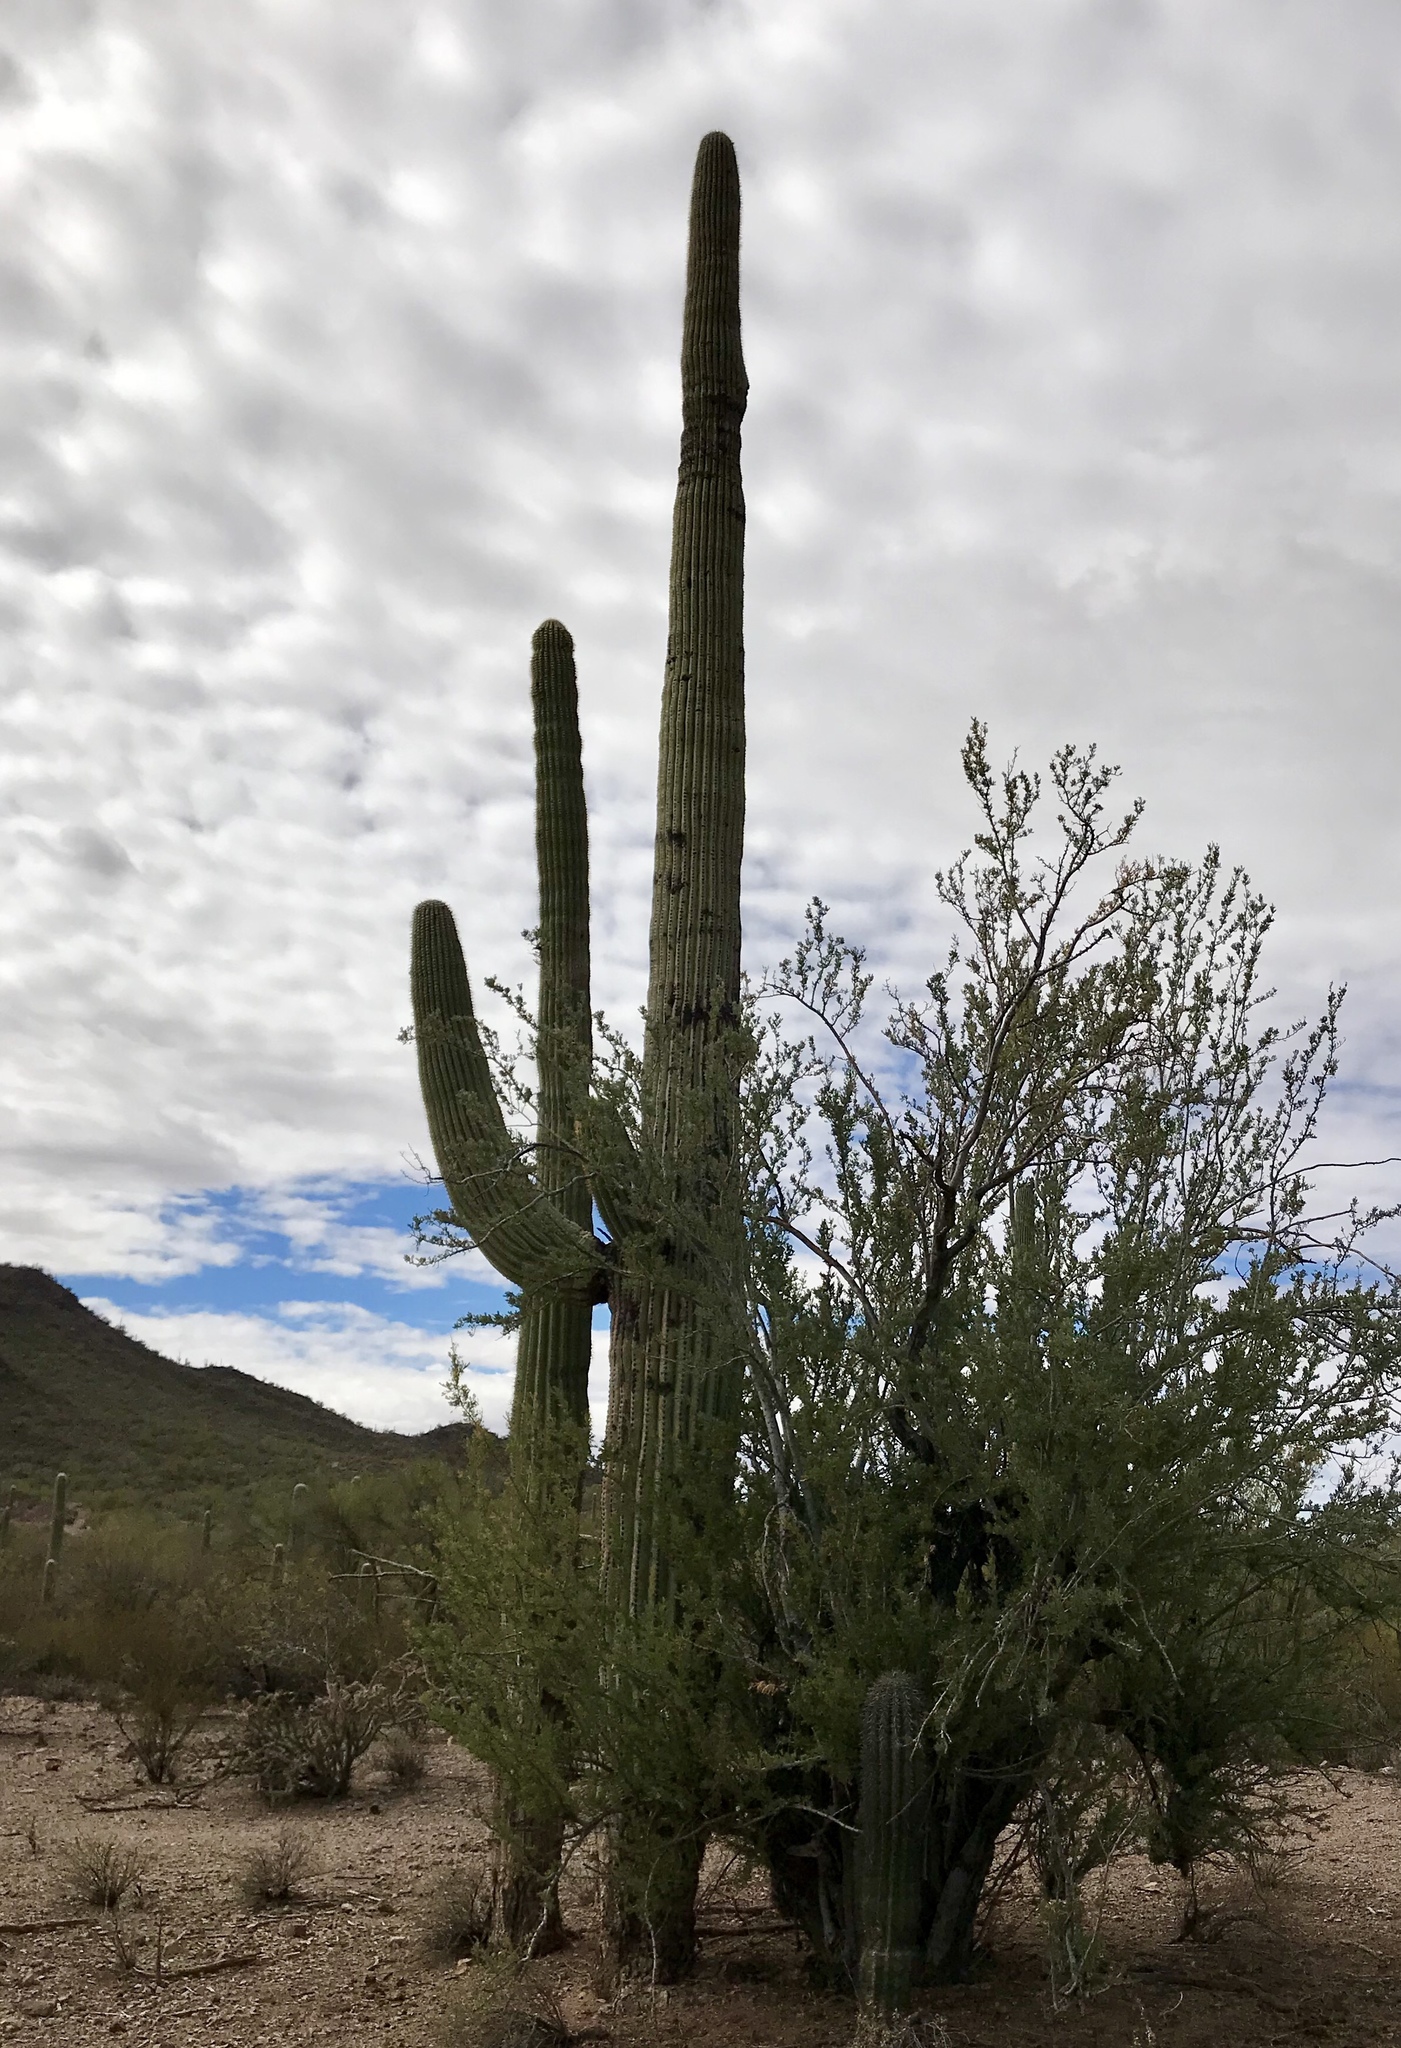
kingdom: Plantae
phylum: Tracheophyta
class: Magnoliopsida
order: Caryophyllales
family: Cactaceae
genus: Carnegiea
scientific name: Carnegiea gigantea
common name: Saguaro
